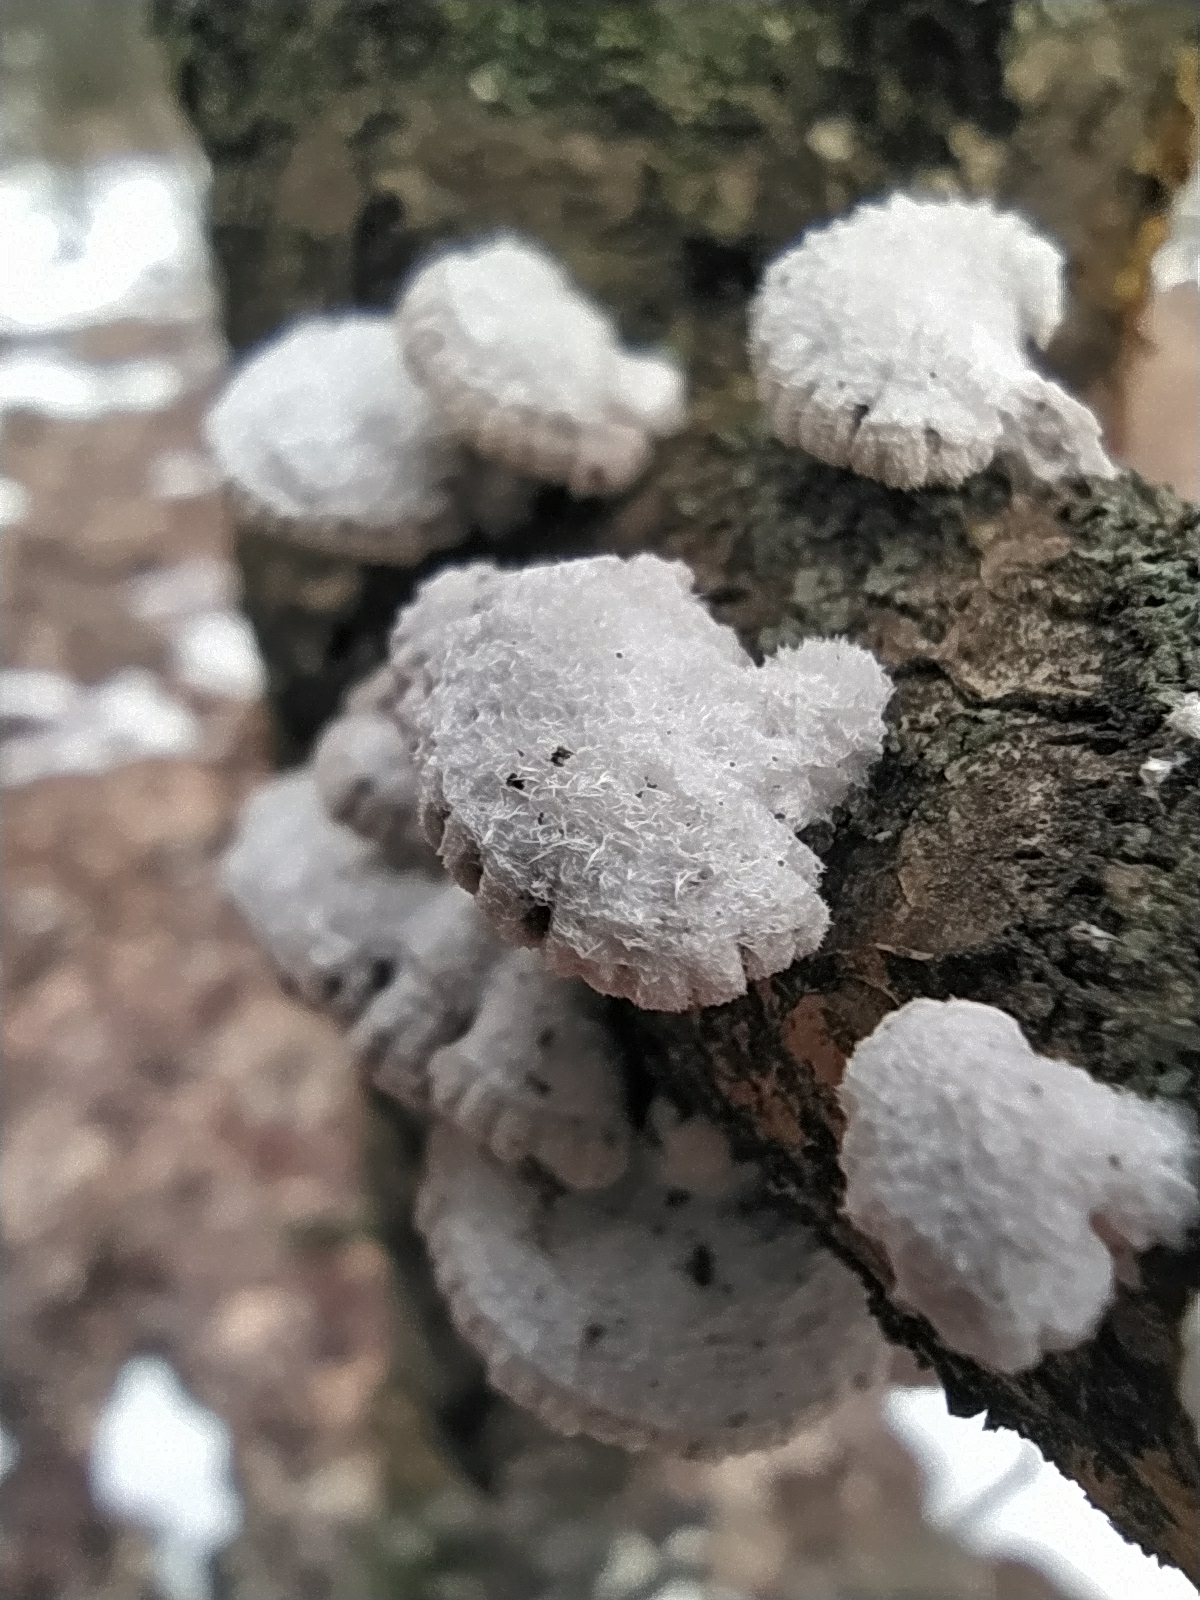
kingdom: Fungi
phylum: Basidiomycota
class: Agaricomycetes
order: Agaricales
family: Schizophyllaceae
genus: Schizophyllum
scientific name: Schizophyllum commune
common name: Common porecrust
